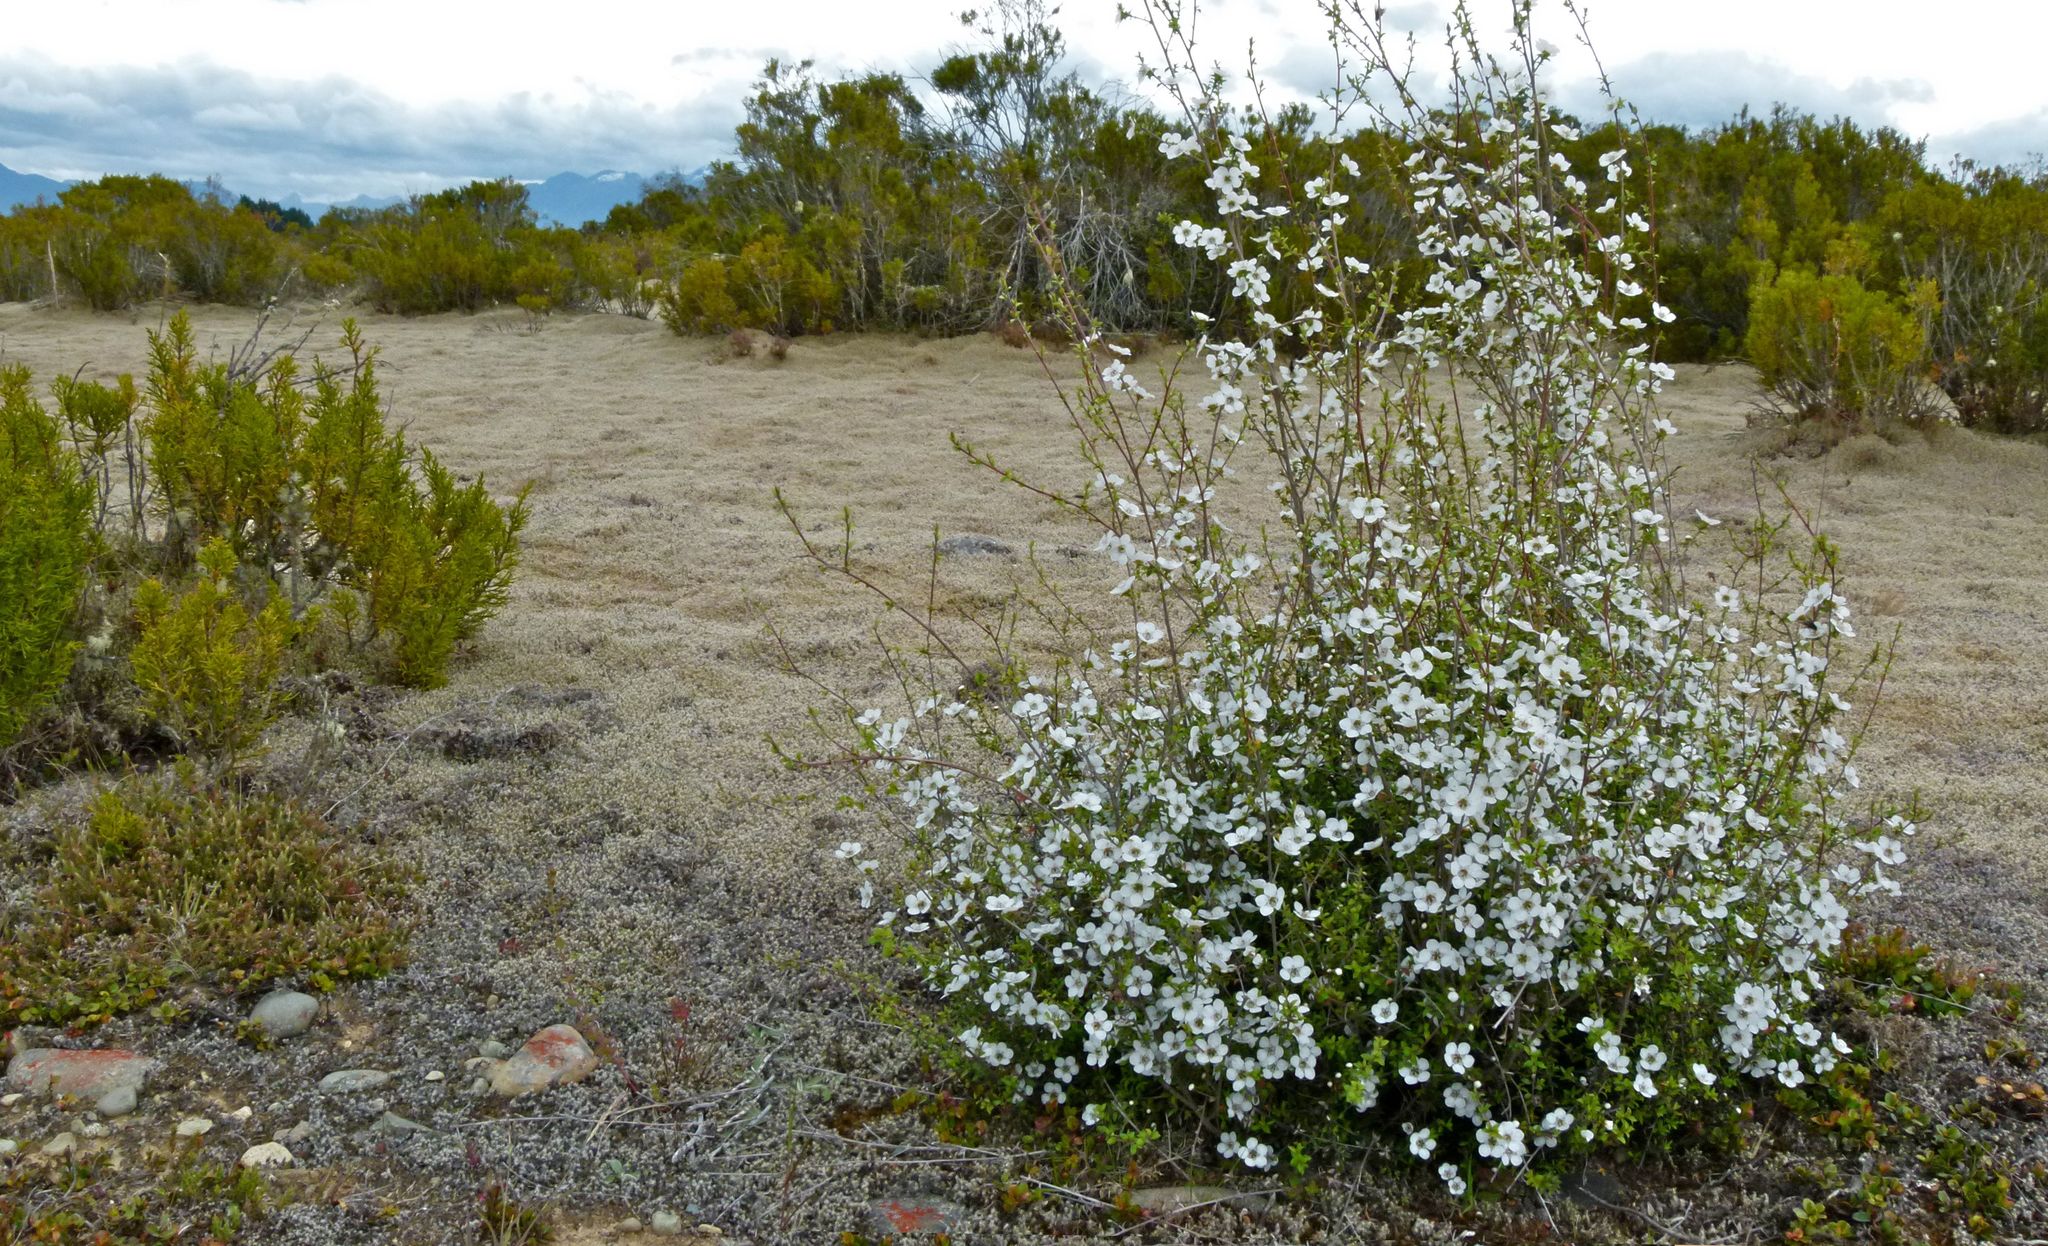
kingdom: Plantae
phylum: Tracheophyta
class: Magnoliopsida
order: Myrtales
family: Myrtaceae
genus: Leptospermum
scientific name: Leptospermum scoparium
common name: Broom tea-tree
